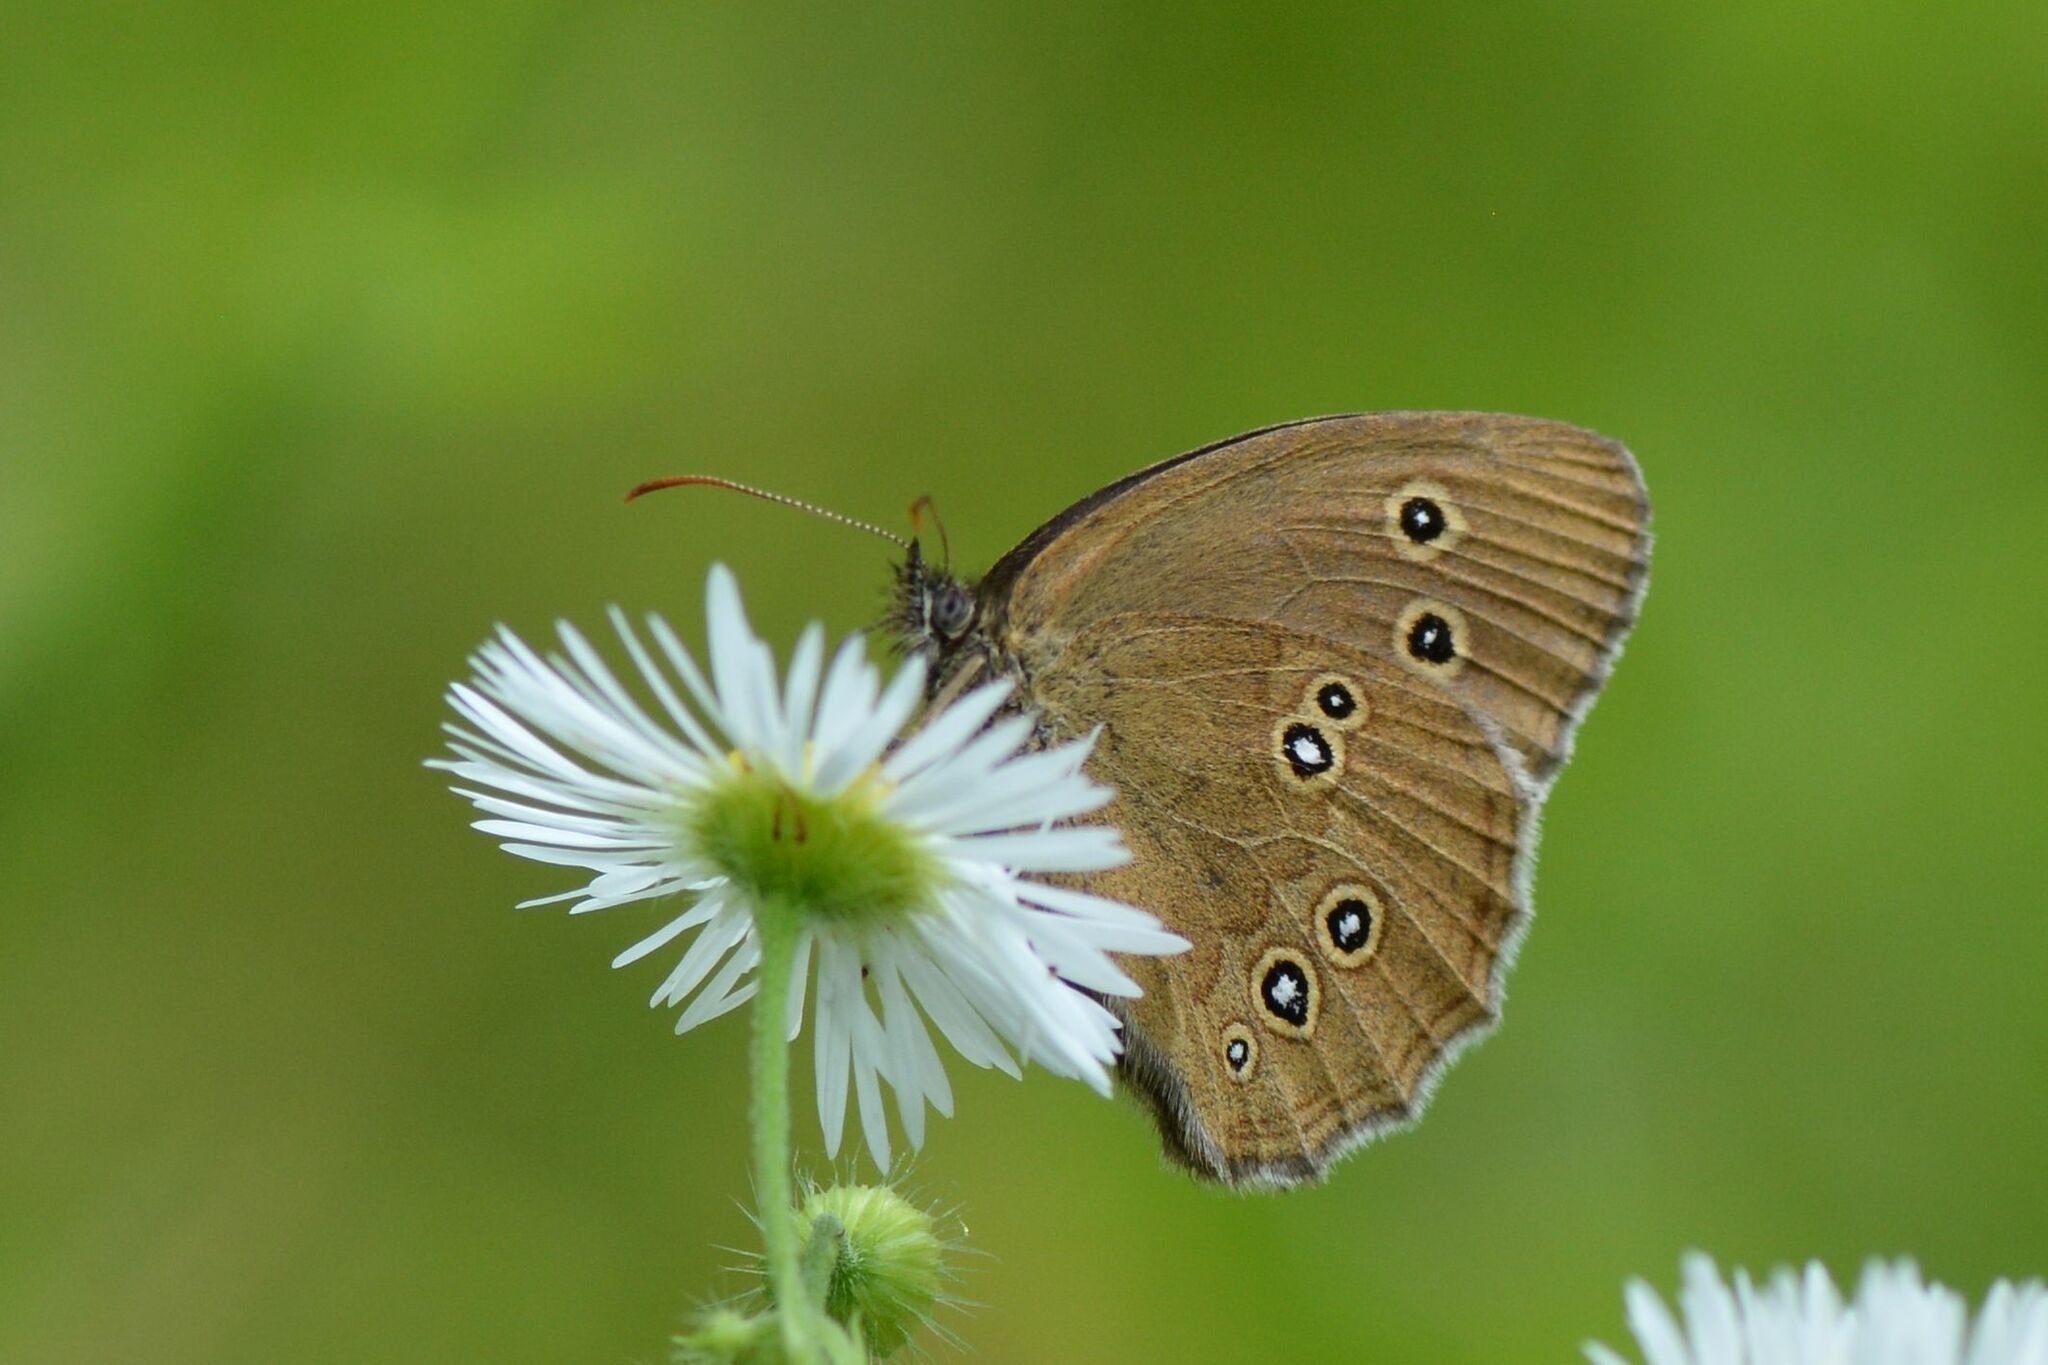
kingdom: Animalia
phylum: Arthropoda
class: Insecta
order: Lepidoptera
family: Nymphalidae
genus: Aphantopus
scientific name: Aphantopus hyperantus
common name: Ringlet
